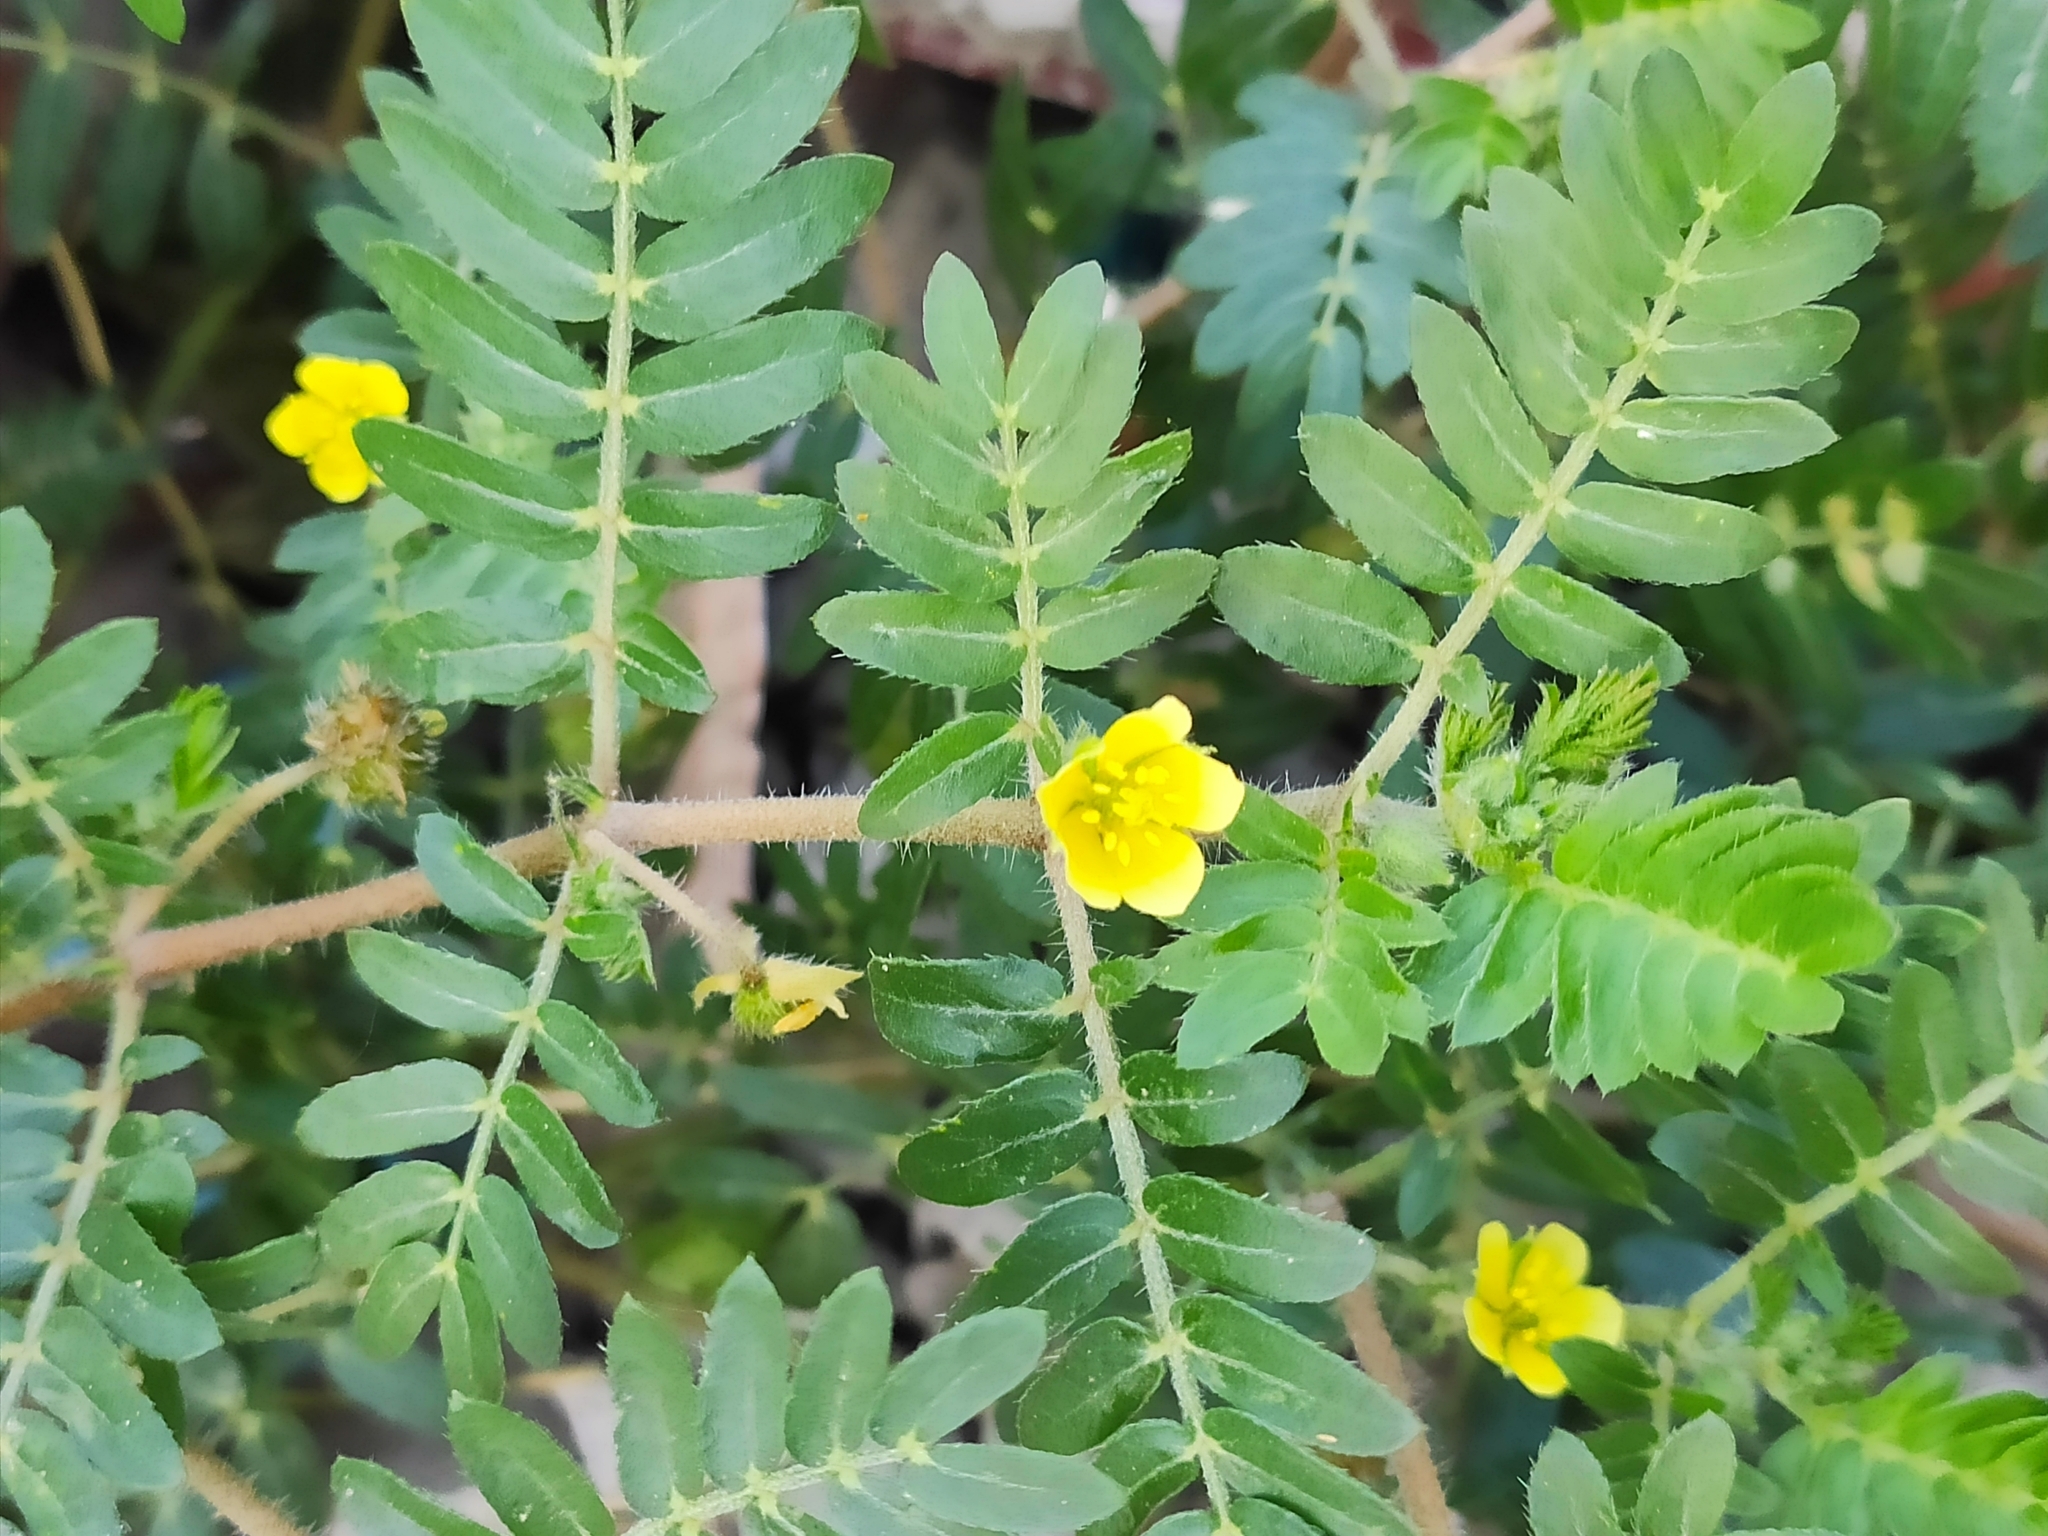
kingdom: Plantae
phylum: Tracheophyta
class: Magnoliopsida
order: Zygophyllales
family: Zygophyllaceae
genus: Tribulus
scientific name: Tribulus terrestris
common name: Puncturevine
